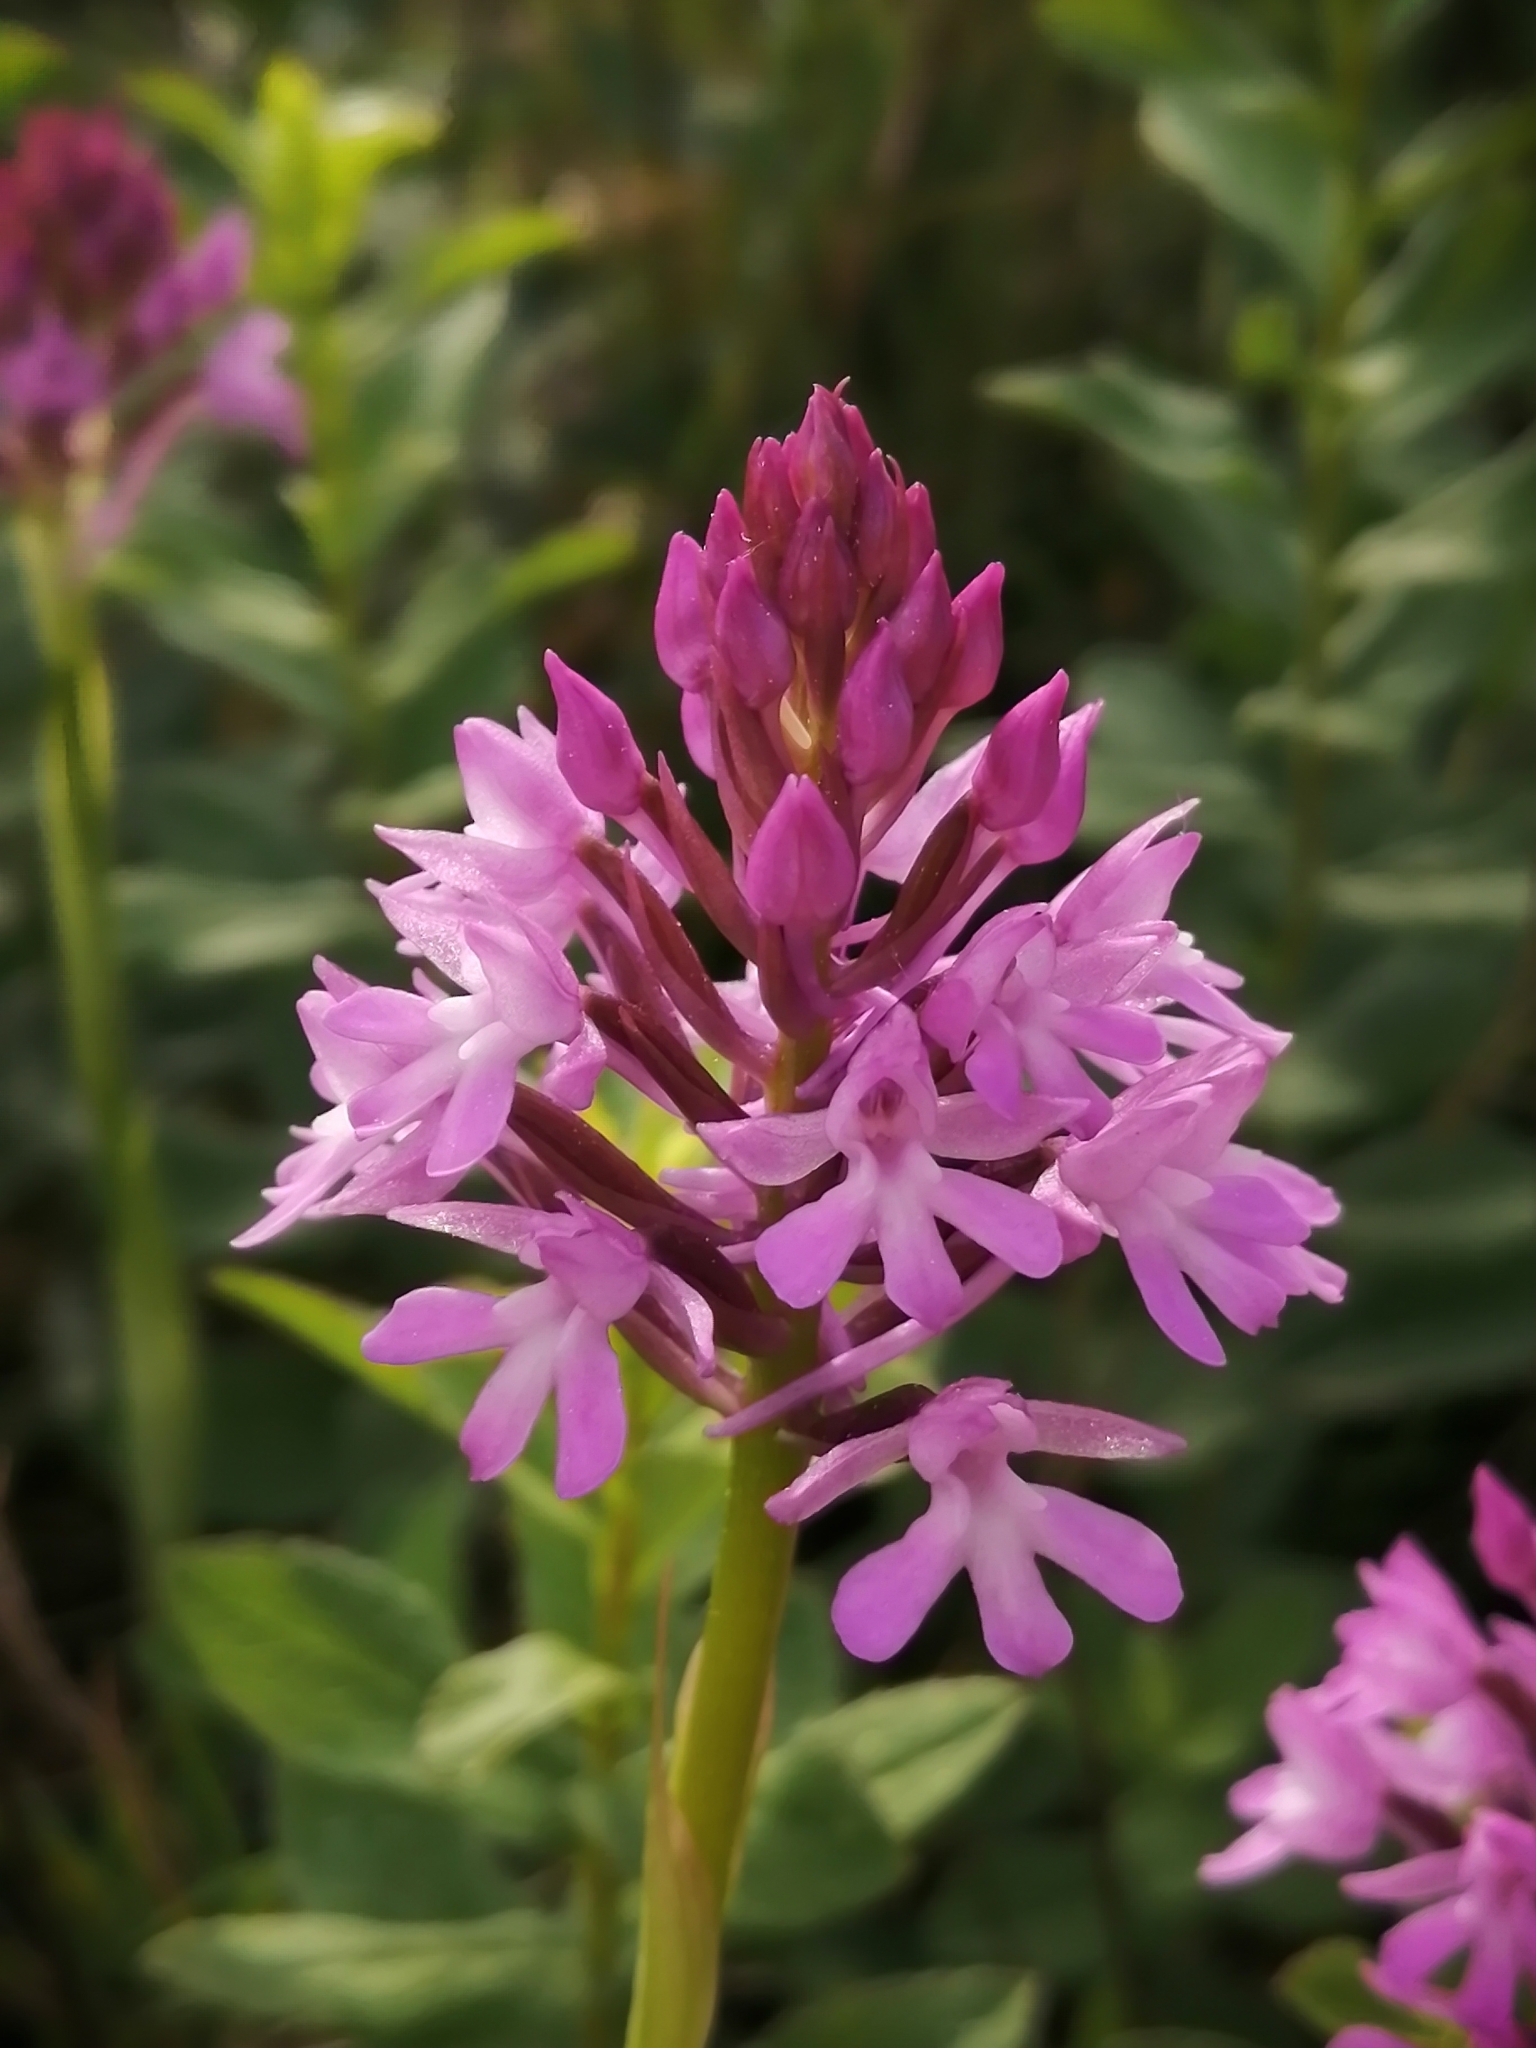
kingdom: Plantae
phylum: Tracheophyta
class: Liliopsida
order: Asparagales
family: Orchidaceae
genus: Anacamptis
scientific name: Anacamptis pyramidalis
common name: Pyramidal orchid
